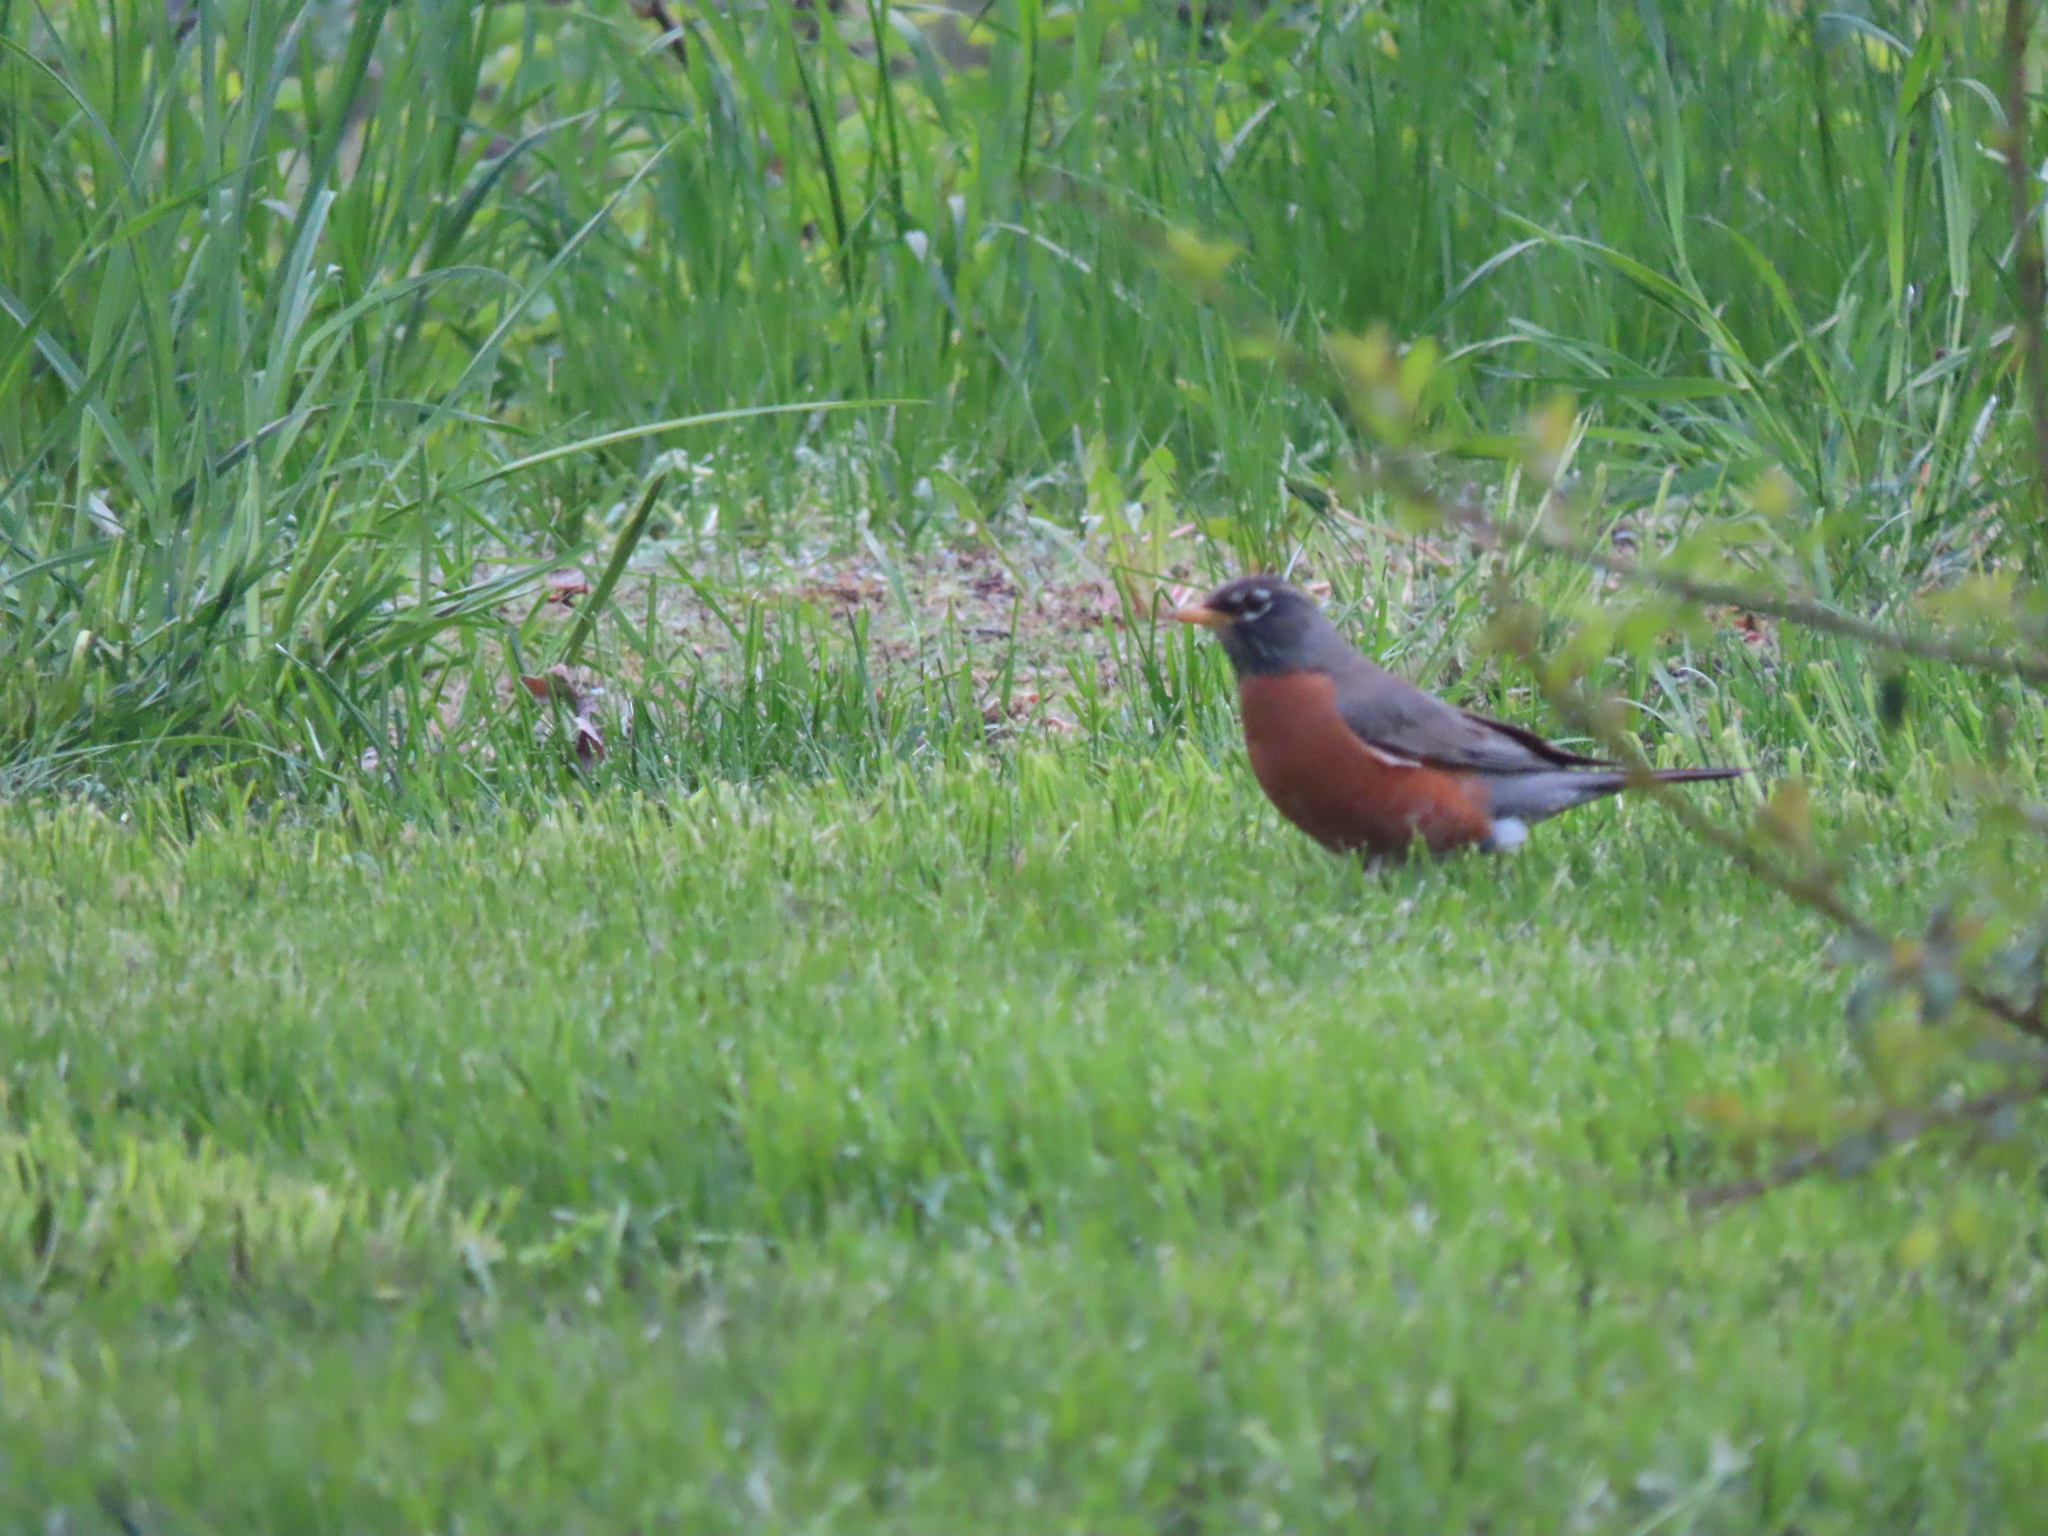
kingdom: Animalia
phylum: Chordata
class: Aves
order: Passeriformes
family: Turdidae
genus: Turdus
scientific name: Turdus migratorius
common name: American robin
